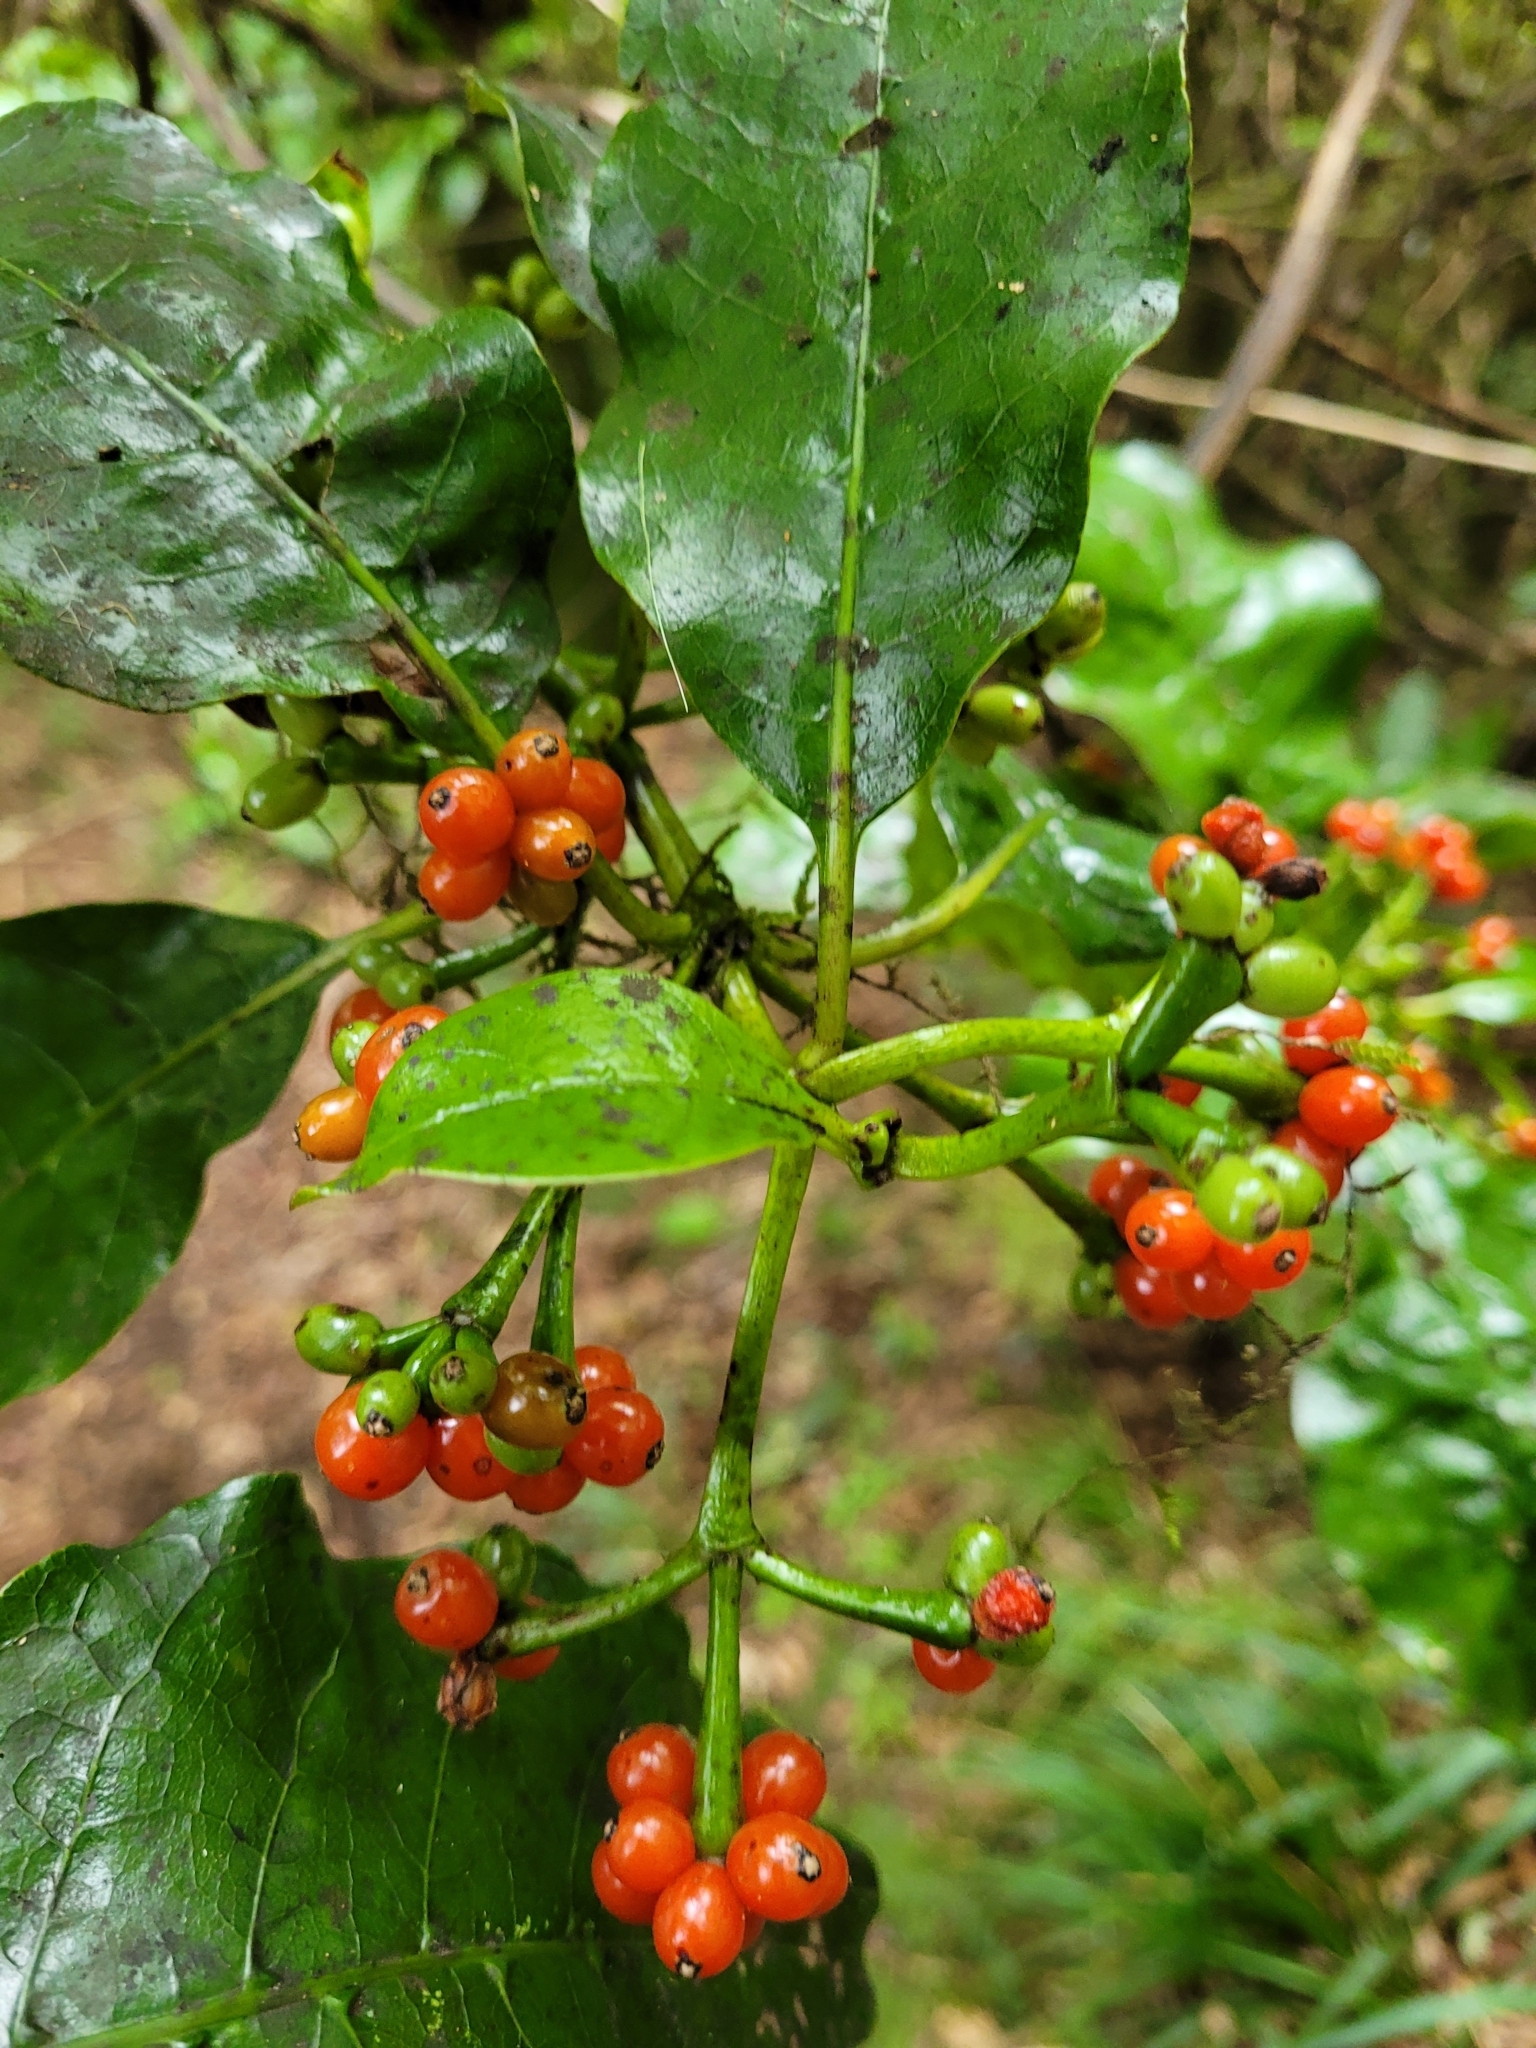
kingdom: Plantae
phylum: Tracheophyta
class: Magnoliopsida
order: Gentianales
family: Rubiaceae
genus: Coprosma
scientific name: Coprosma autumnalis
